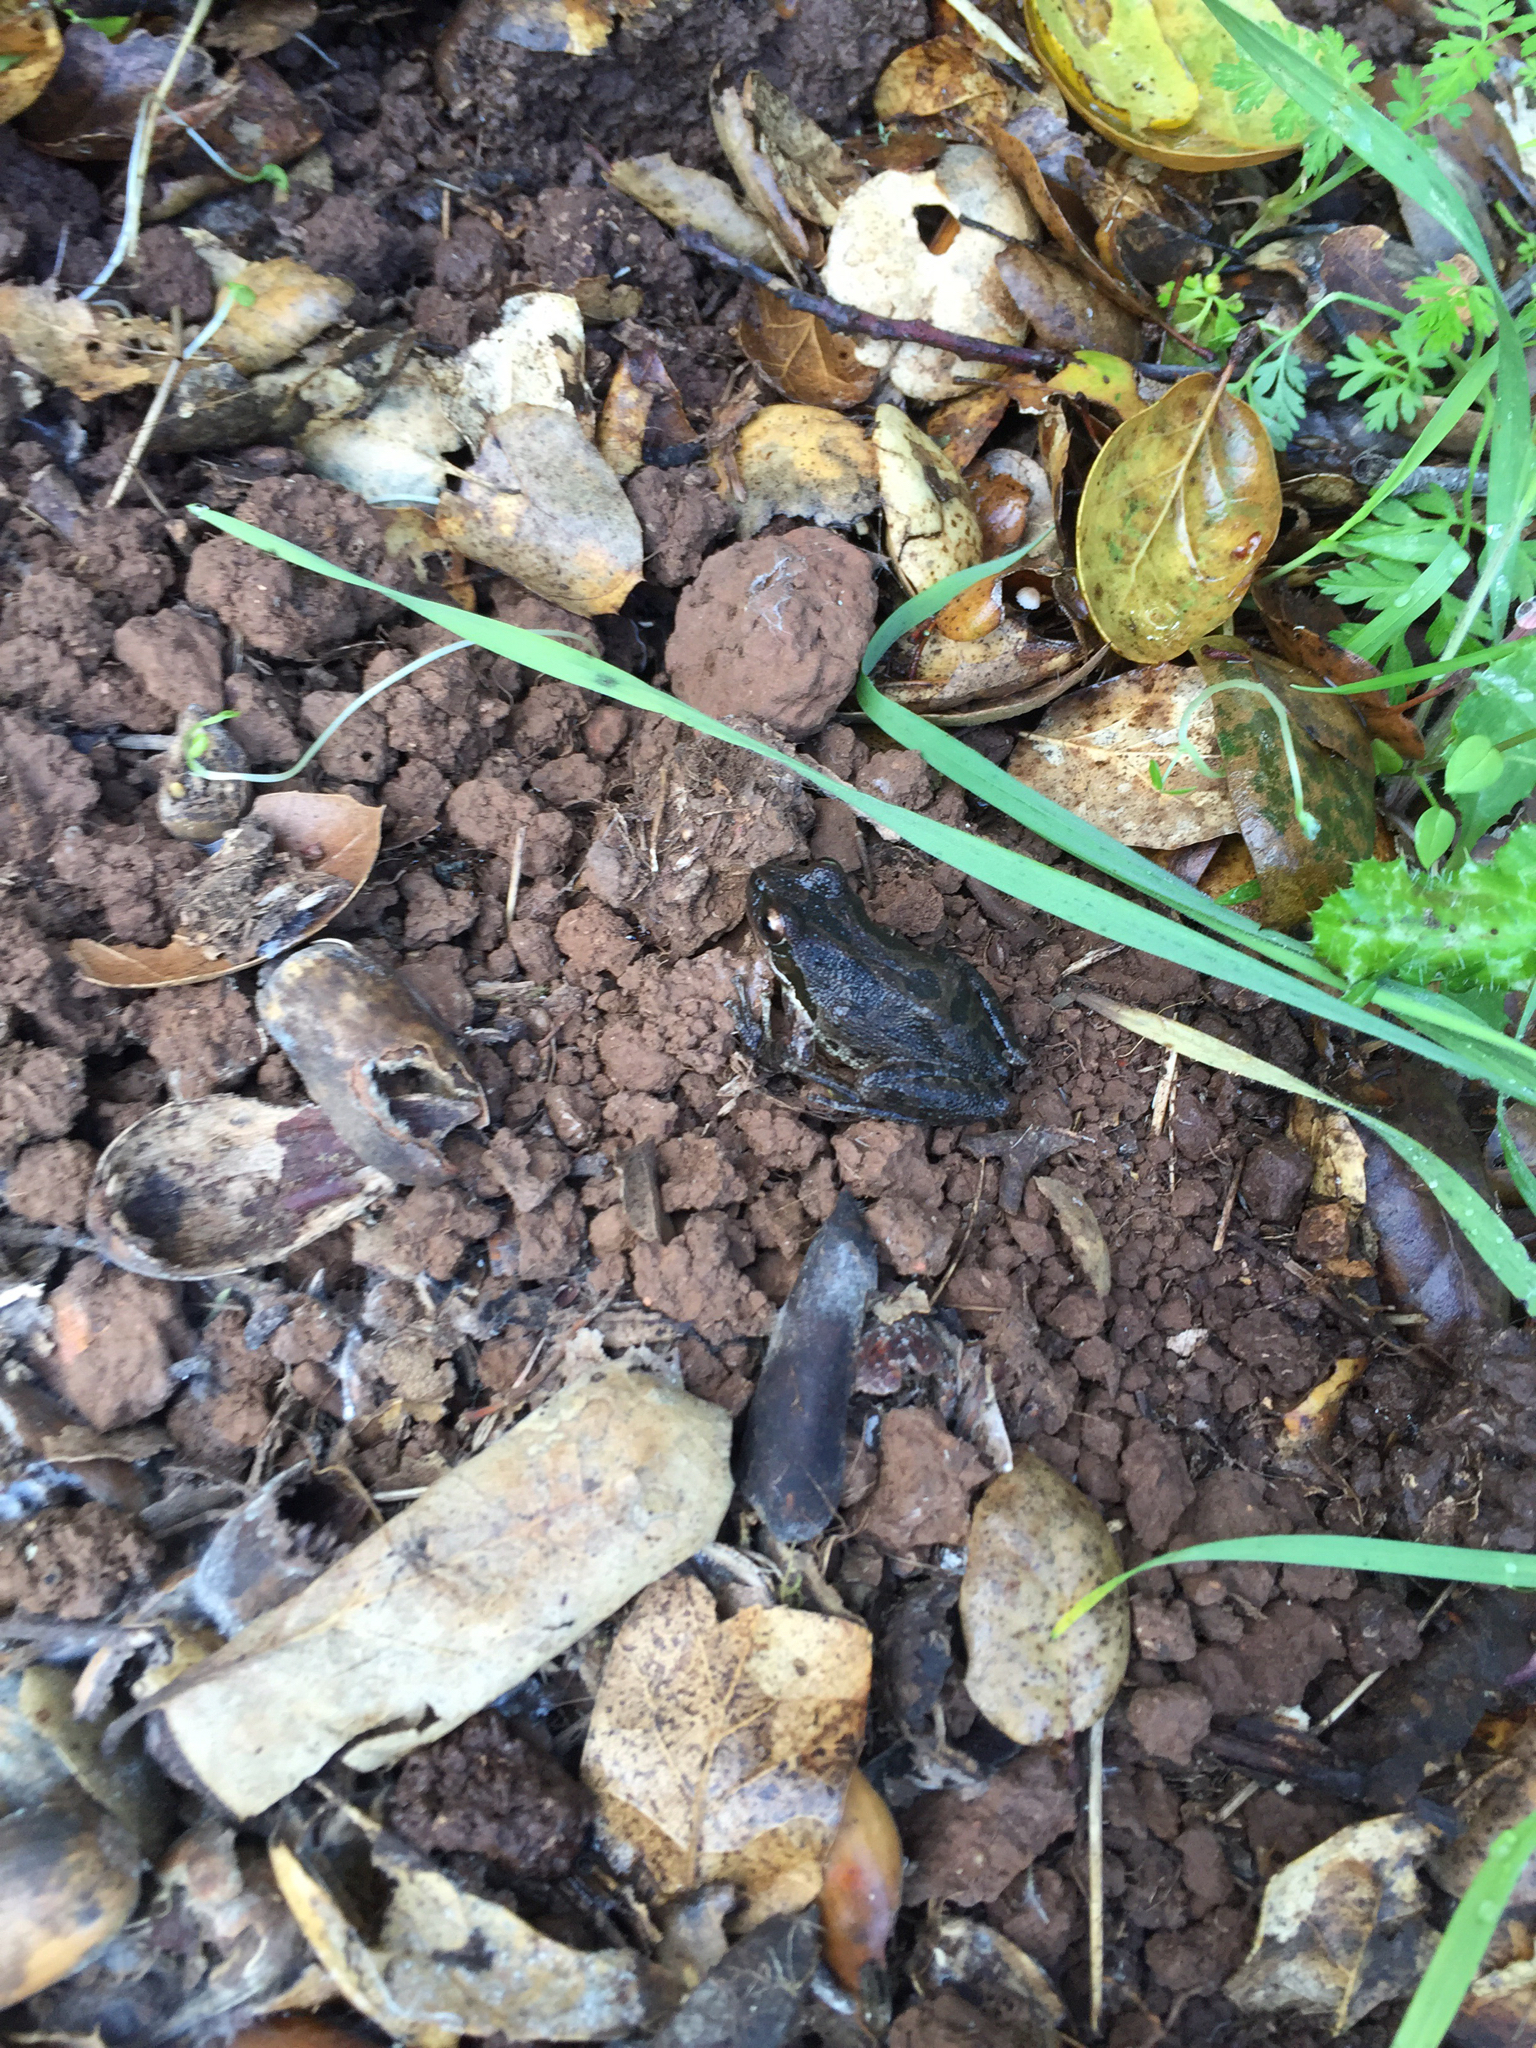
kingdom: Animalia
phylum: Chordata
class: Amphibia
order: Anura
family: Hylidae
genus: Pseudacris
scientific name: Pseudacris regilla
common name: Pacific chorus frog
